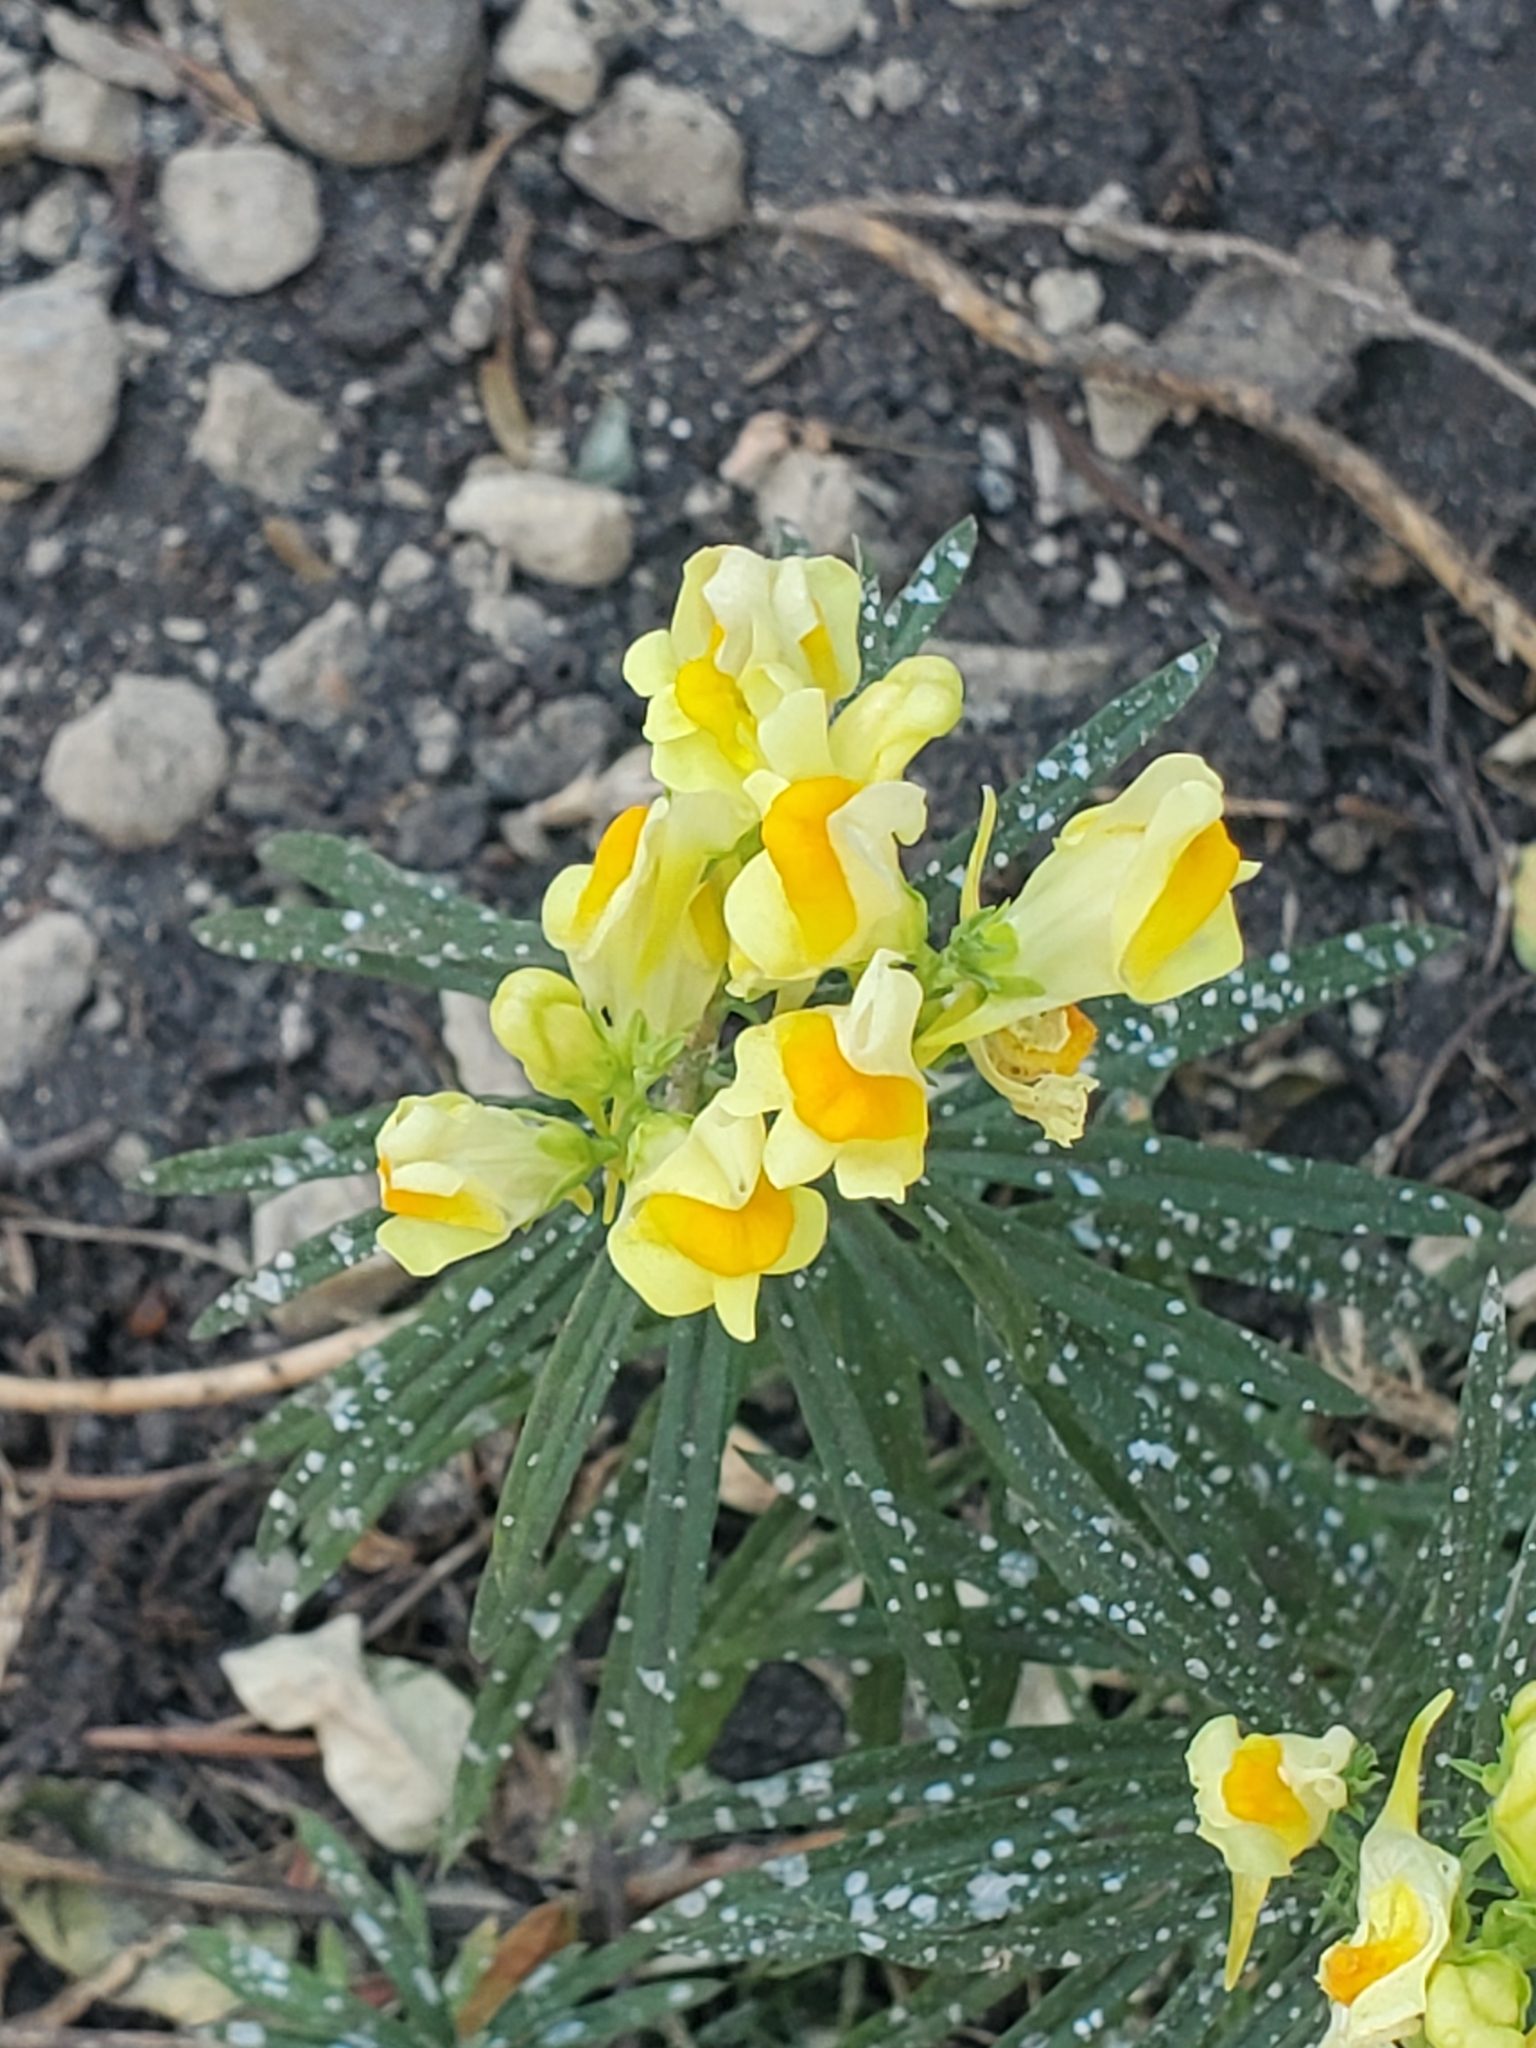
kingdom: Plantae
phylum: Tracheophyta
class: Magnoliopsida
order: Lamiales
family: Plantaginaceae
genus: Linaria
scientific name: Linaria vulgaris
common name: Butter and eggs
